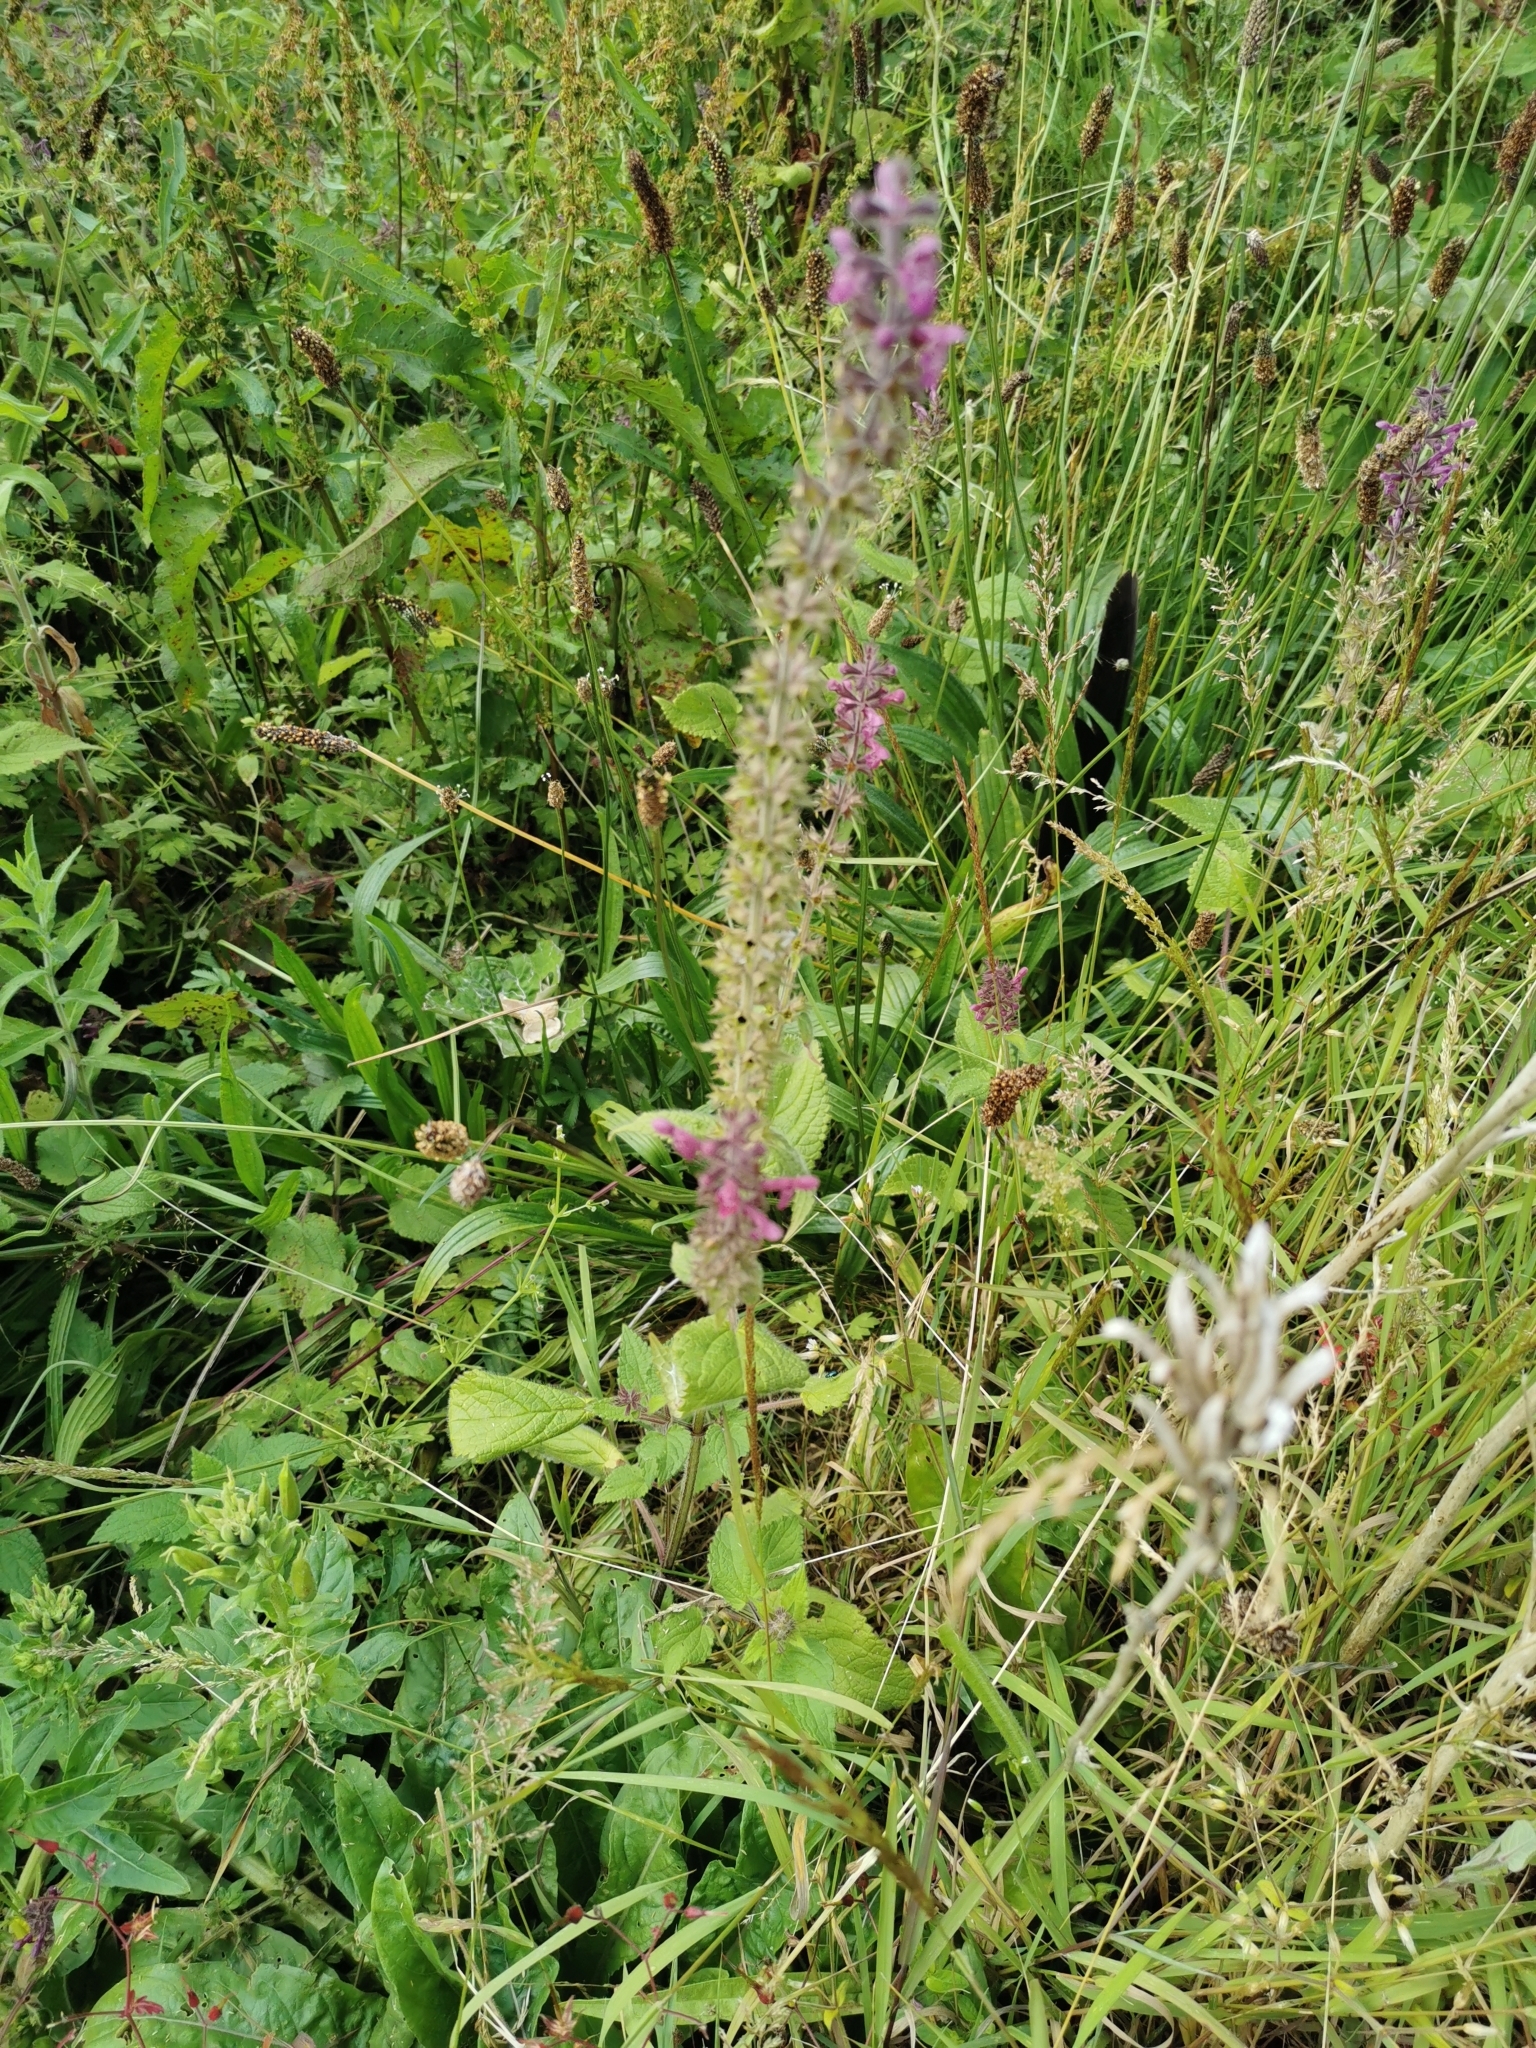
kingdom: Plantae
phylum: Tracheophyta
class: Magnoliopsida
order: Lamiales
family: Lamiaceae
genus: Stachys
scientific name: Stachys sylvatica
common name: Hedge woundwort
